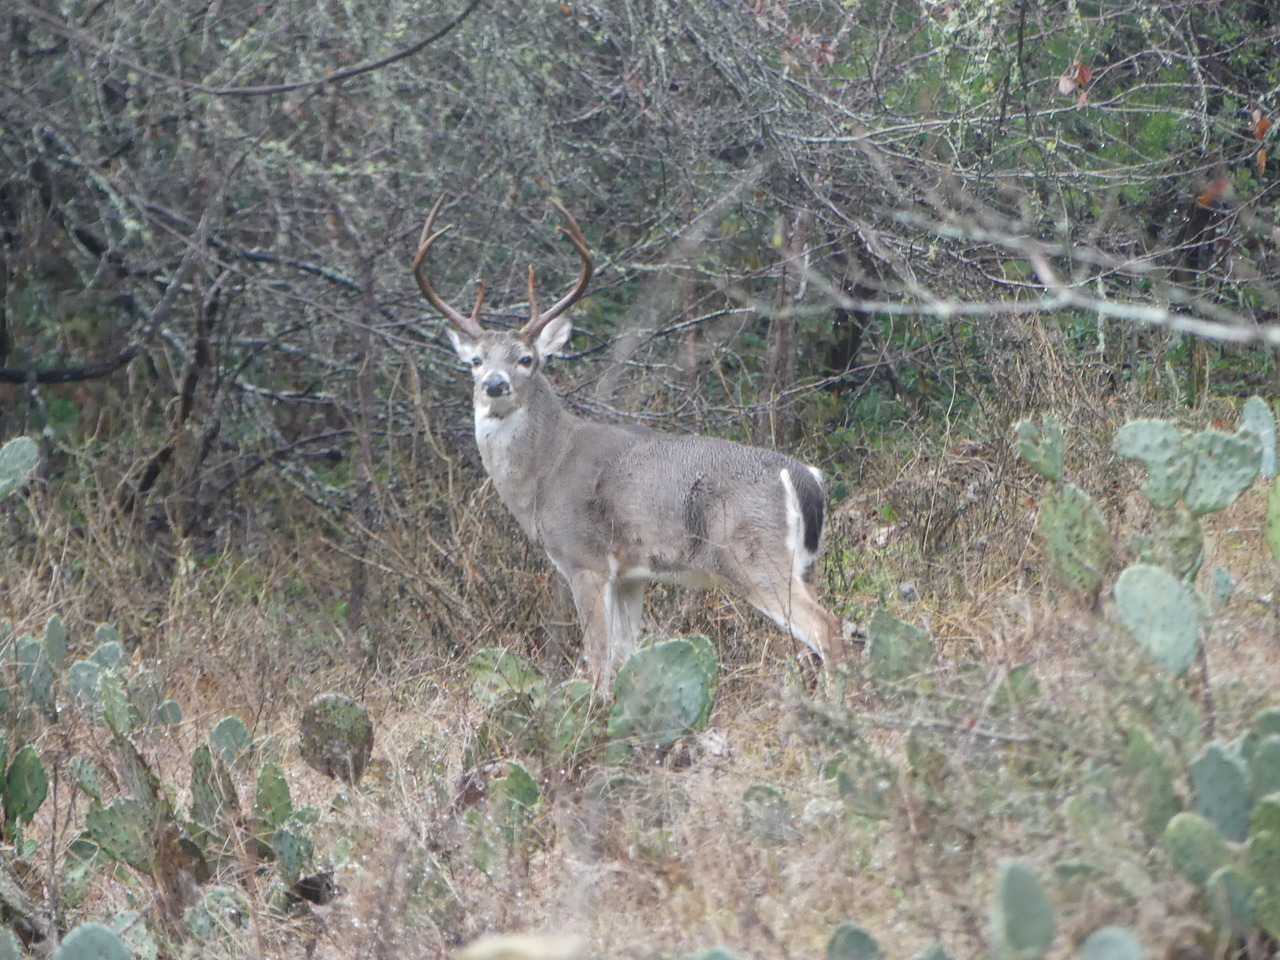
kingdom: Animalia
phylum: Chordata
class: Mammalia
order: Artiodactyla
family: Cervidae
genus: Odocoileus
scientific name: Odocoileus virginianus
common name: White-tailed deer
